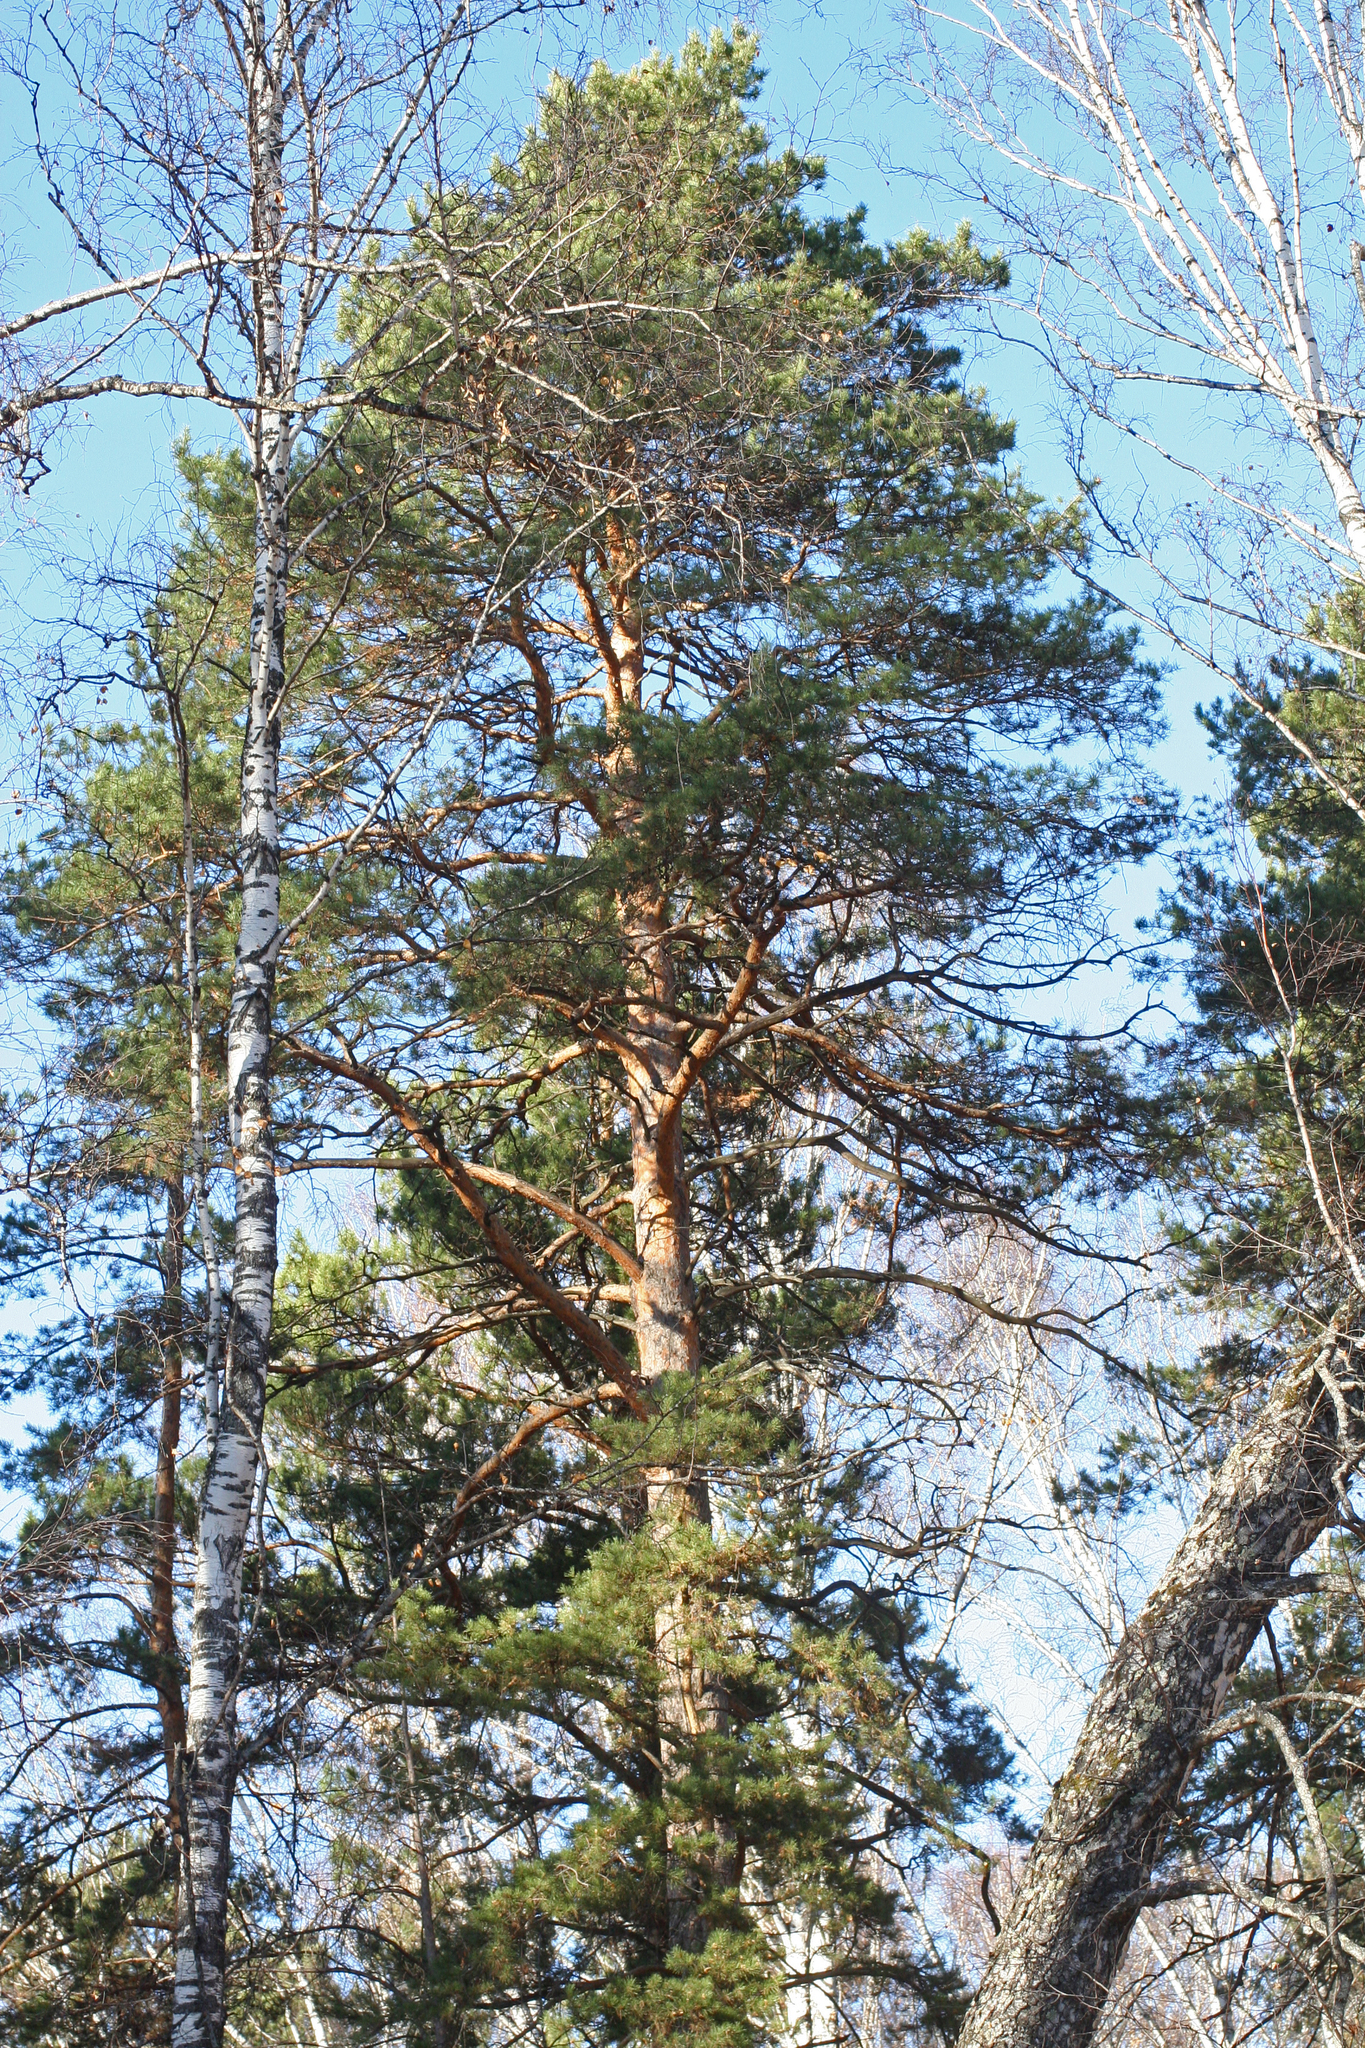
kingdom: Plantae
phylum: Tracheophyta
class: Pinopsida
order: Pinales
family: Pinaceae
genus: Pinus
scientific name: Pinus sylvestris
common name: Scots pine
